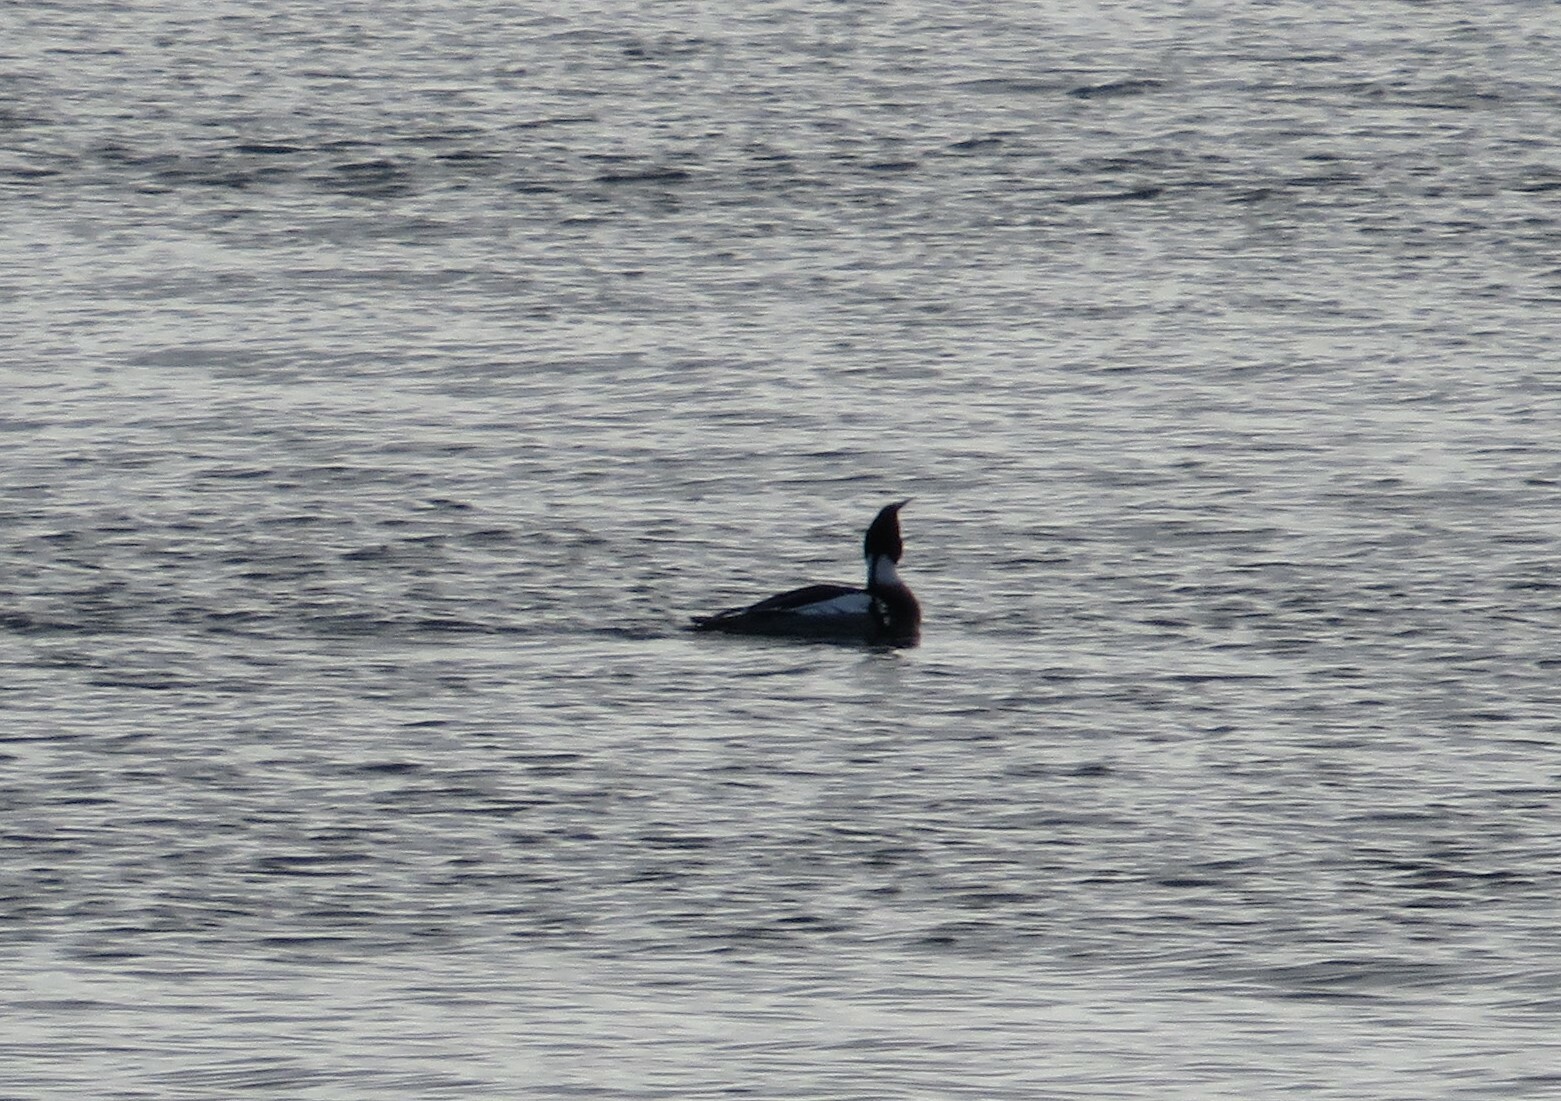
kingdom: Animalia
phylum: Chordata
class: Aves
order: Anseriformes
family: Anatidae
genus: Mergus
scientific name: Mergus serrator
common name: Red-breasted merganser
